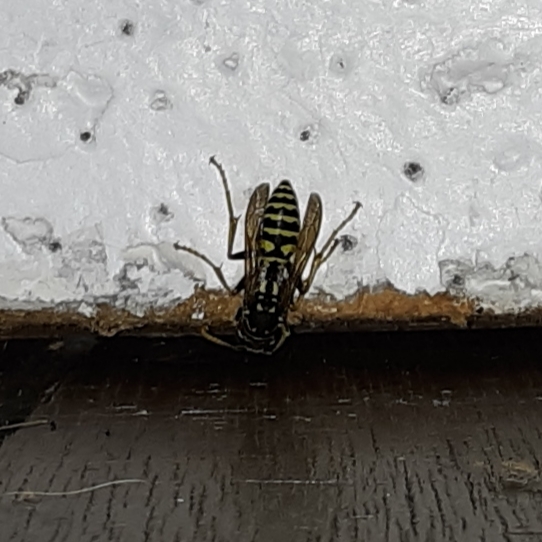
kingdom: Animalia
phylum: Arthropoda
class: Insecta
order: Hymenoptera
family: Eumenidae
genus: Polistes
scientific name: Polistes dominula
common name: Paper wasp
